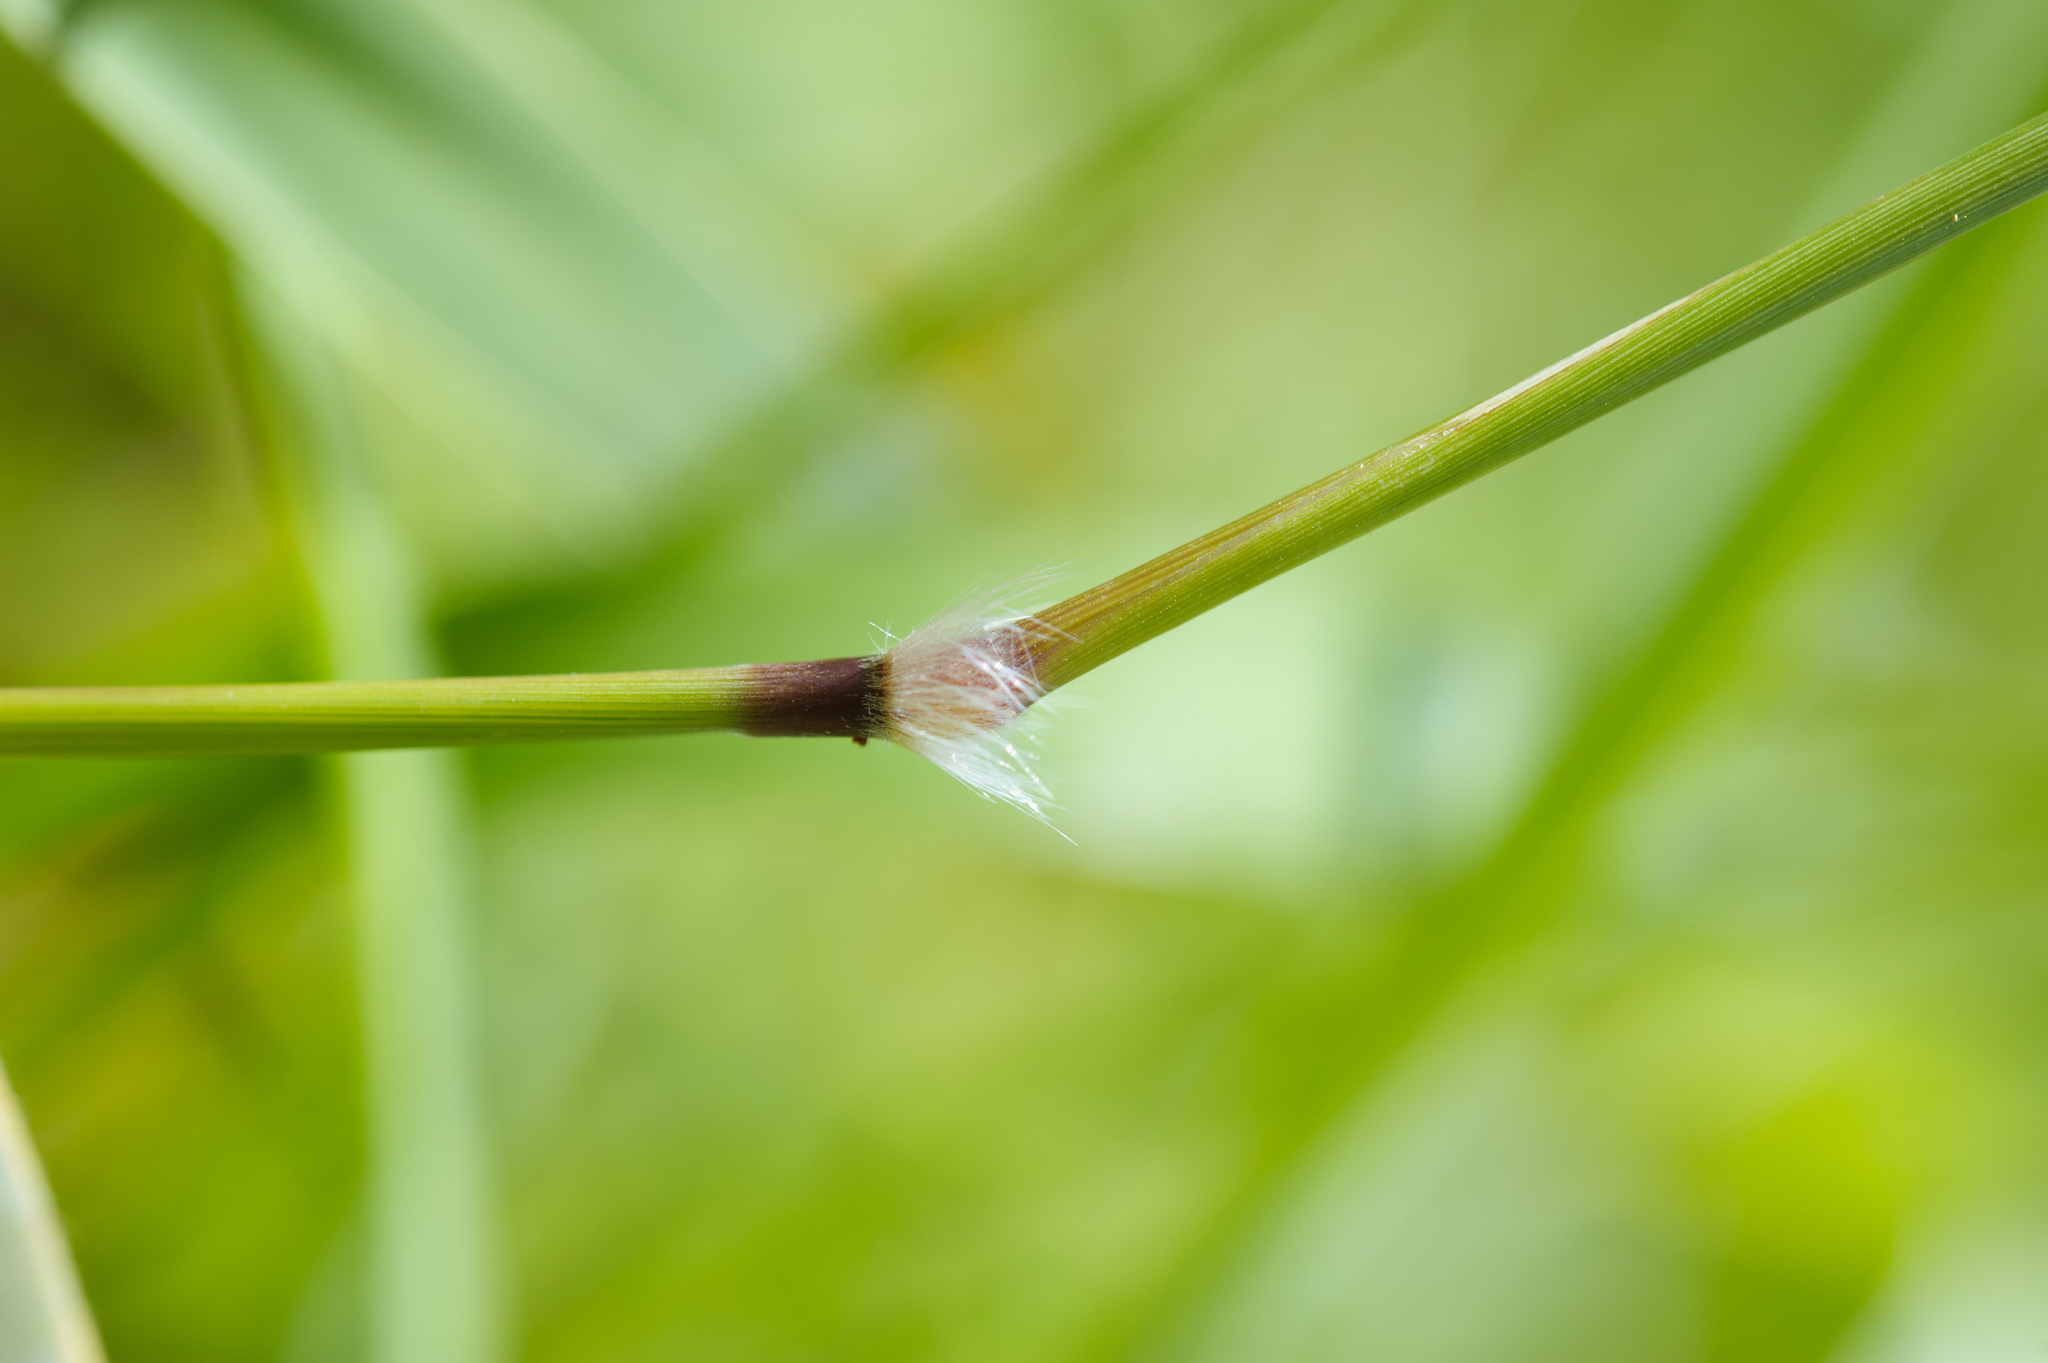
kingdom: Plantae
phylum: Tracheophyta
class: Liliopsida
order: Poales
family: Poaceae
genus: Sorghum
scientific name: Sorghum nitidum
